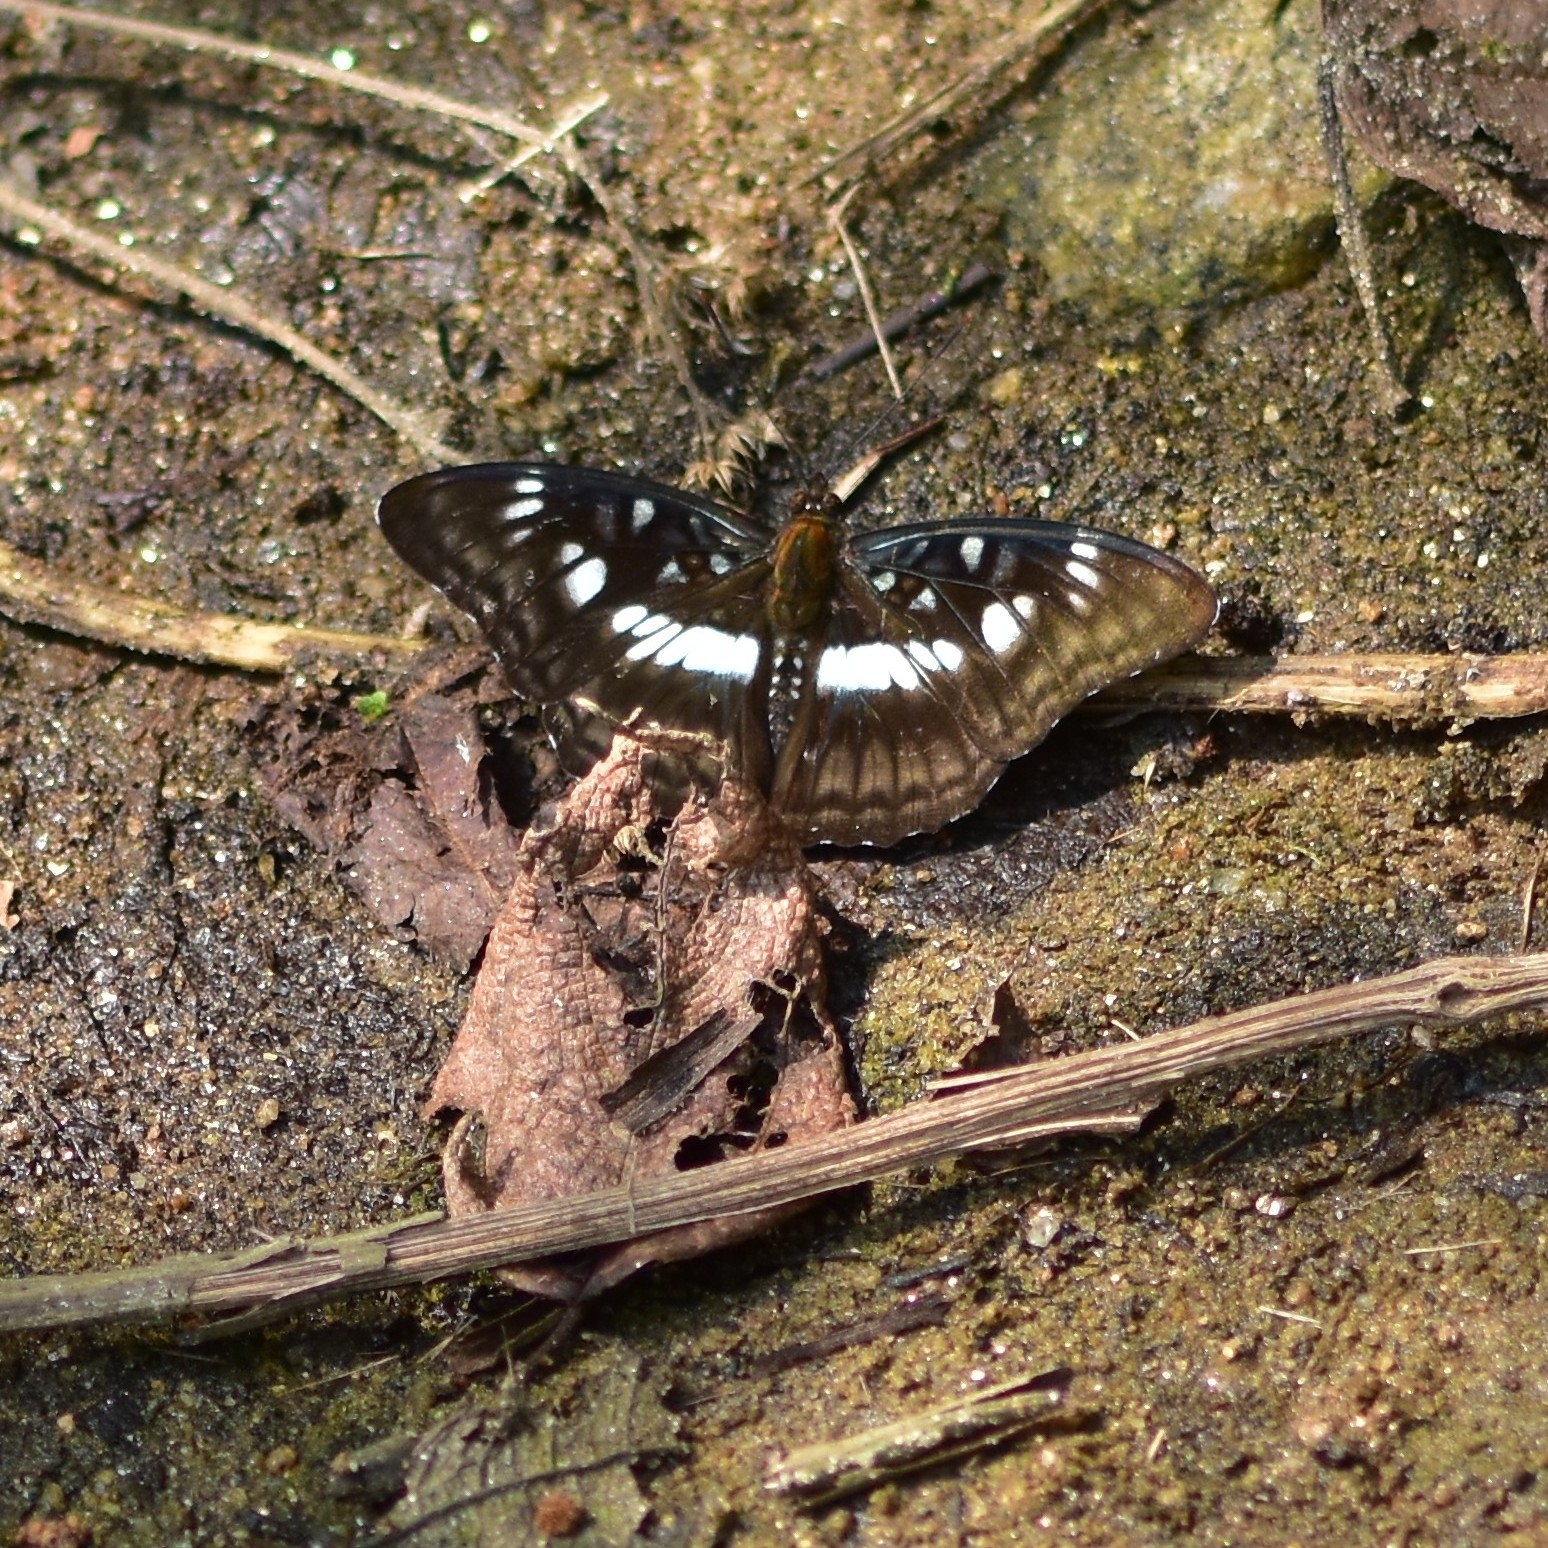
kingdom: Animalia
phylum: Arthropoda
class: Insecta
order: Lepidoptera
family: Nymphalidae
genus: Parathyma
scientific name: Parathyma ranga
